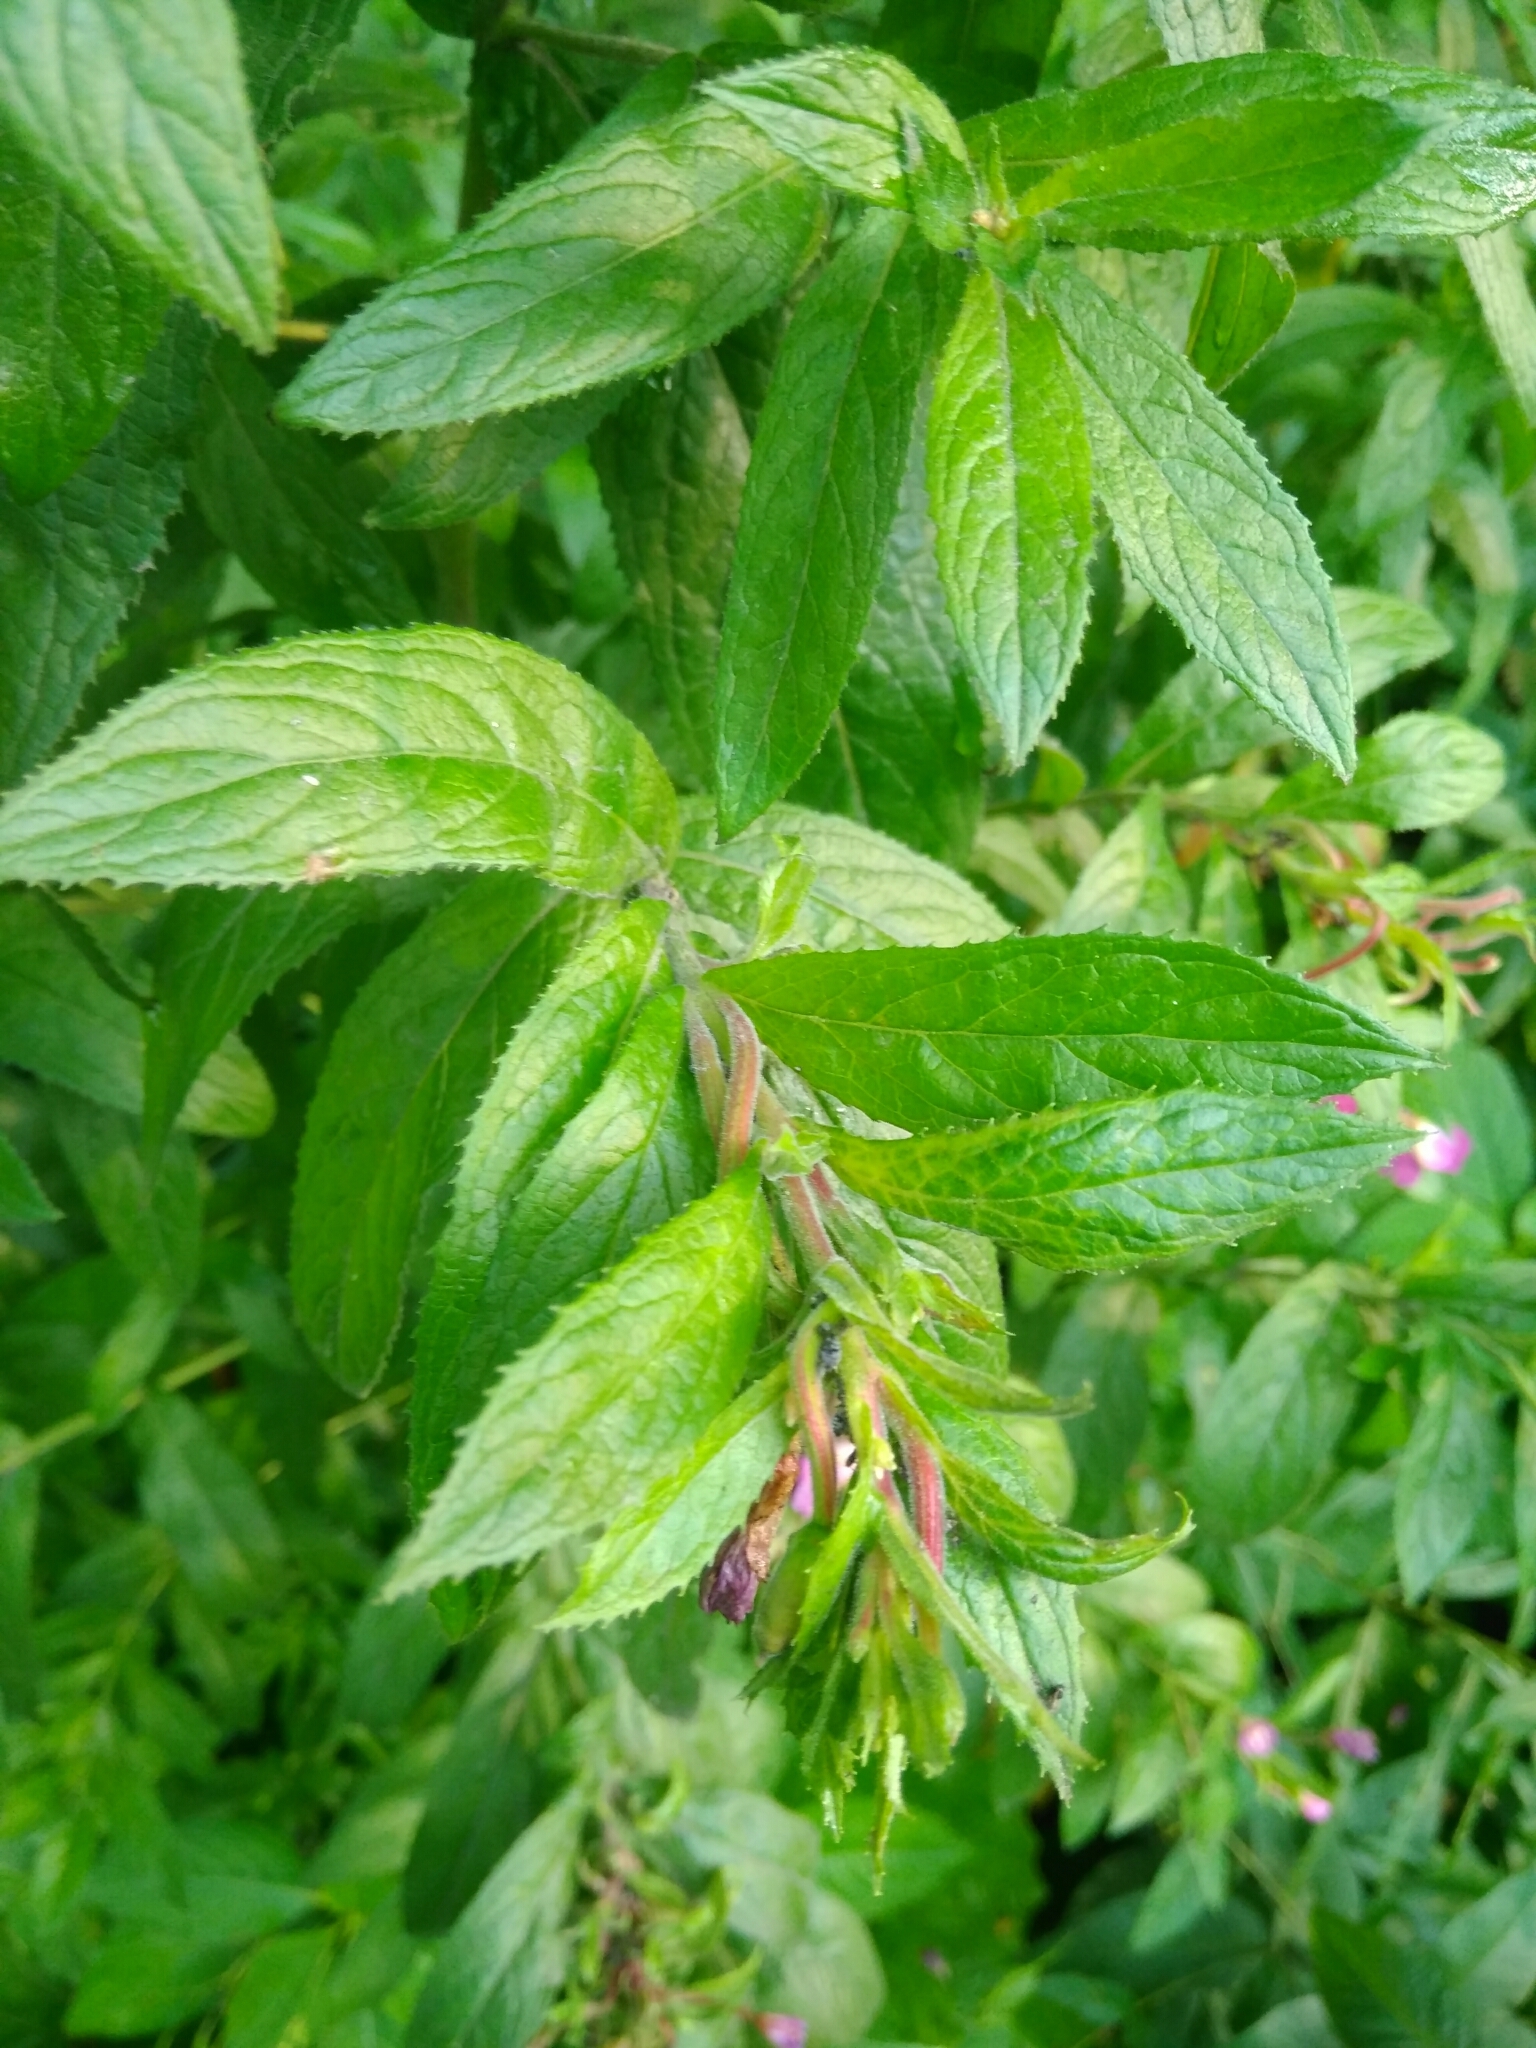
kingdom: Plantae
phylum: Tracheophyta
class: Magnoliopsida
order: Myrtales
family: Onagraceae
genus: Epilobium
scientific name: Epilobium hirsutum
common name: Great willowherb
